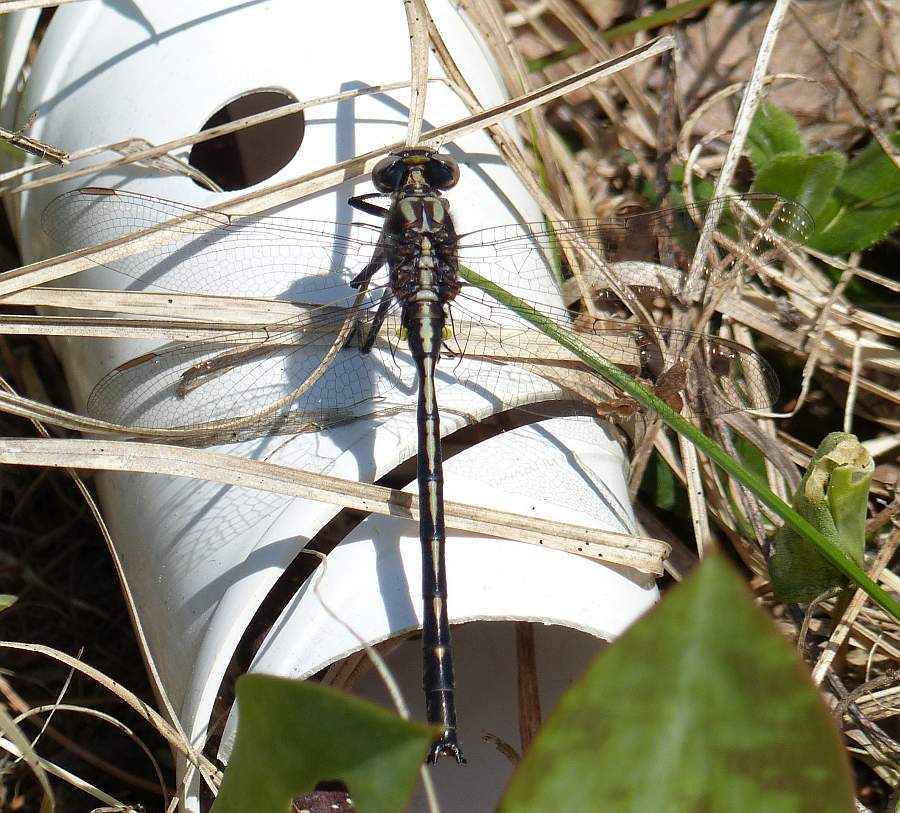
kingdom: Animalia
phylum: Arthropoda
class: Insecta
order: Odonata
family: Gomphidae
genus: Phanogomphus
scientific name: Phanogomphus spicatus
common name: Dusky clubtail
